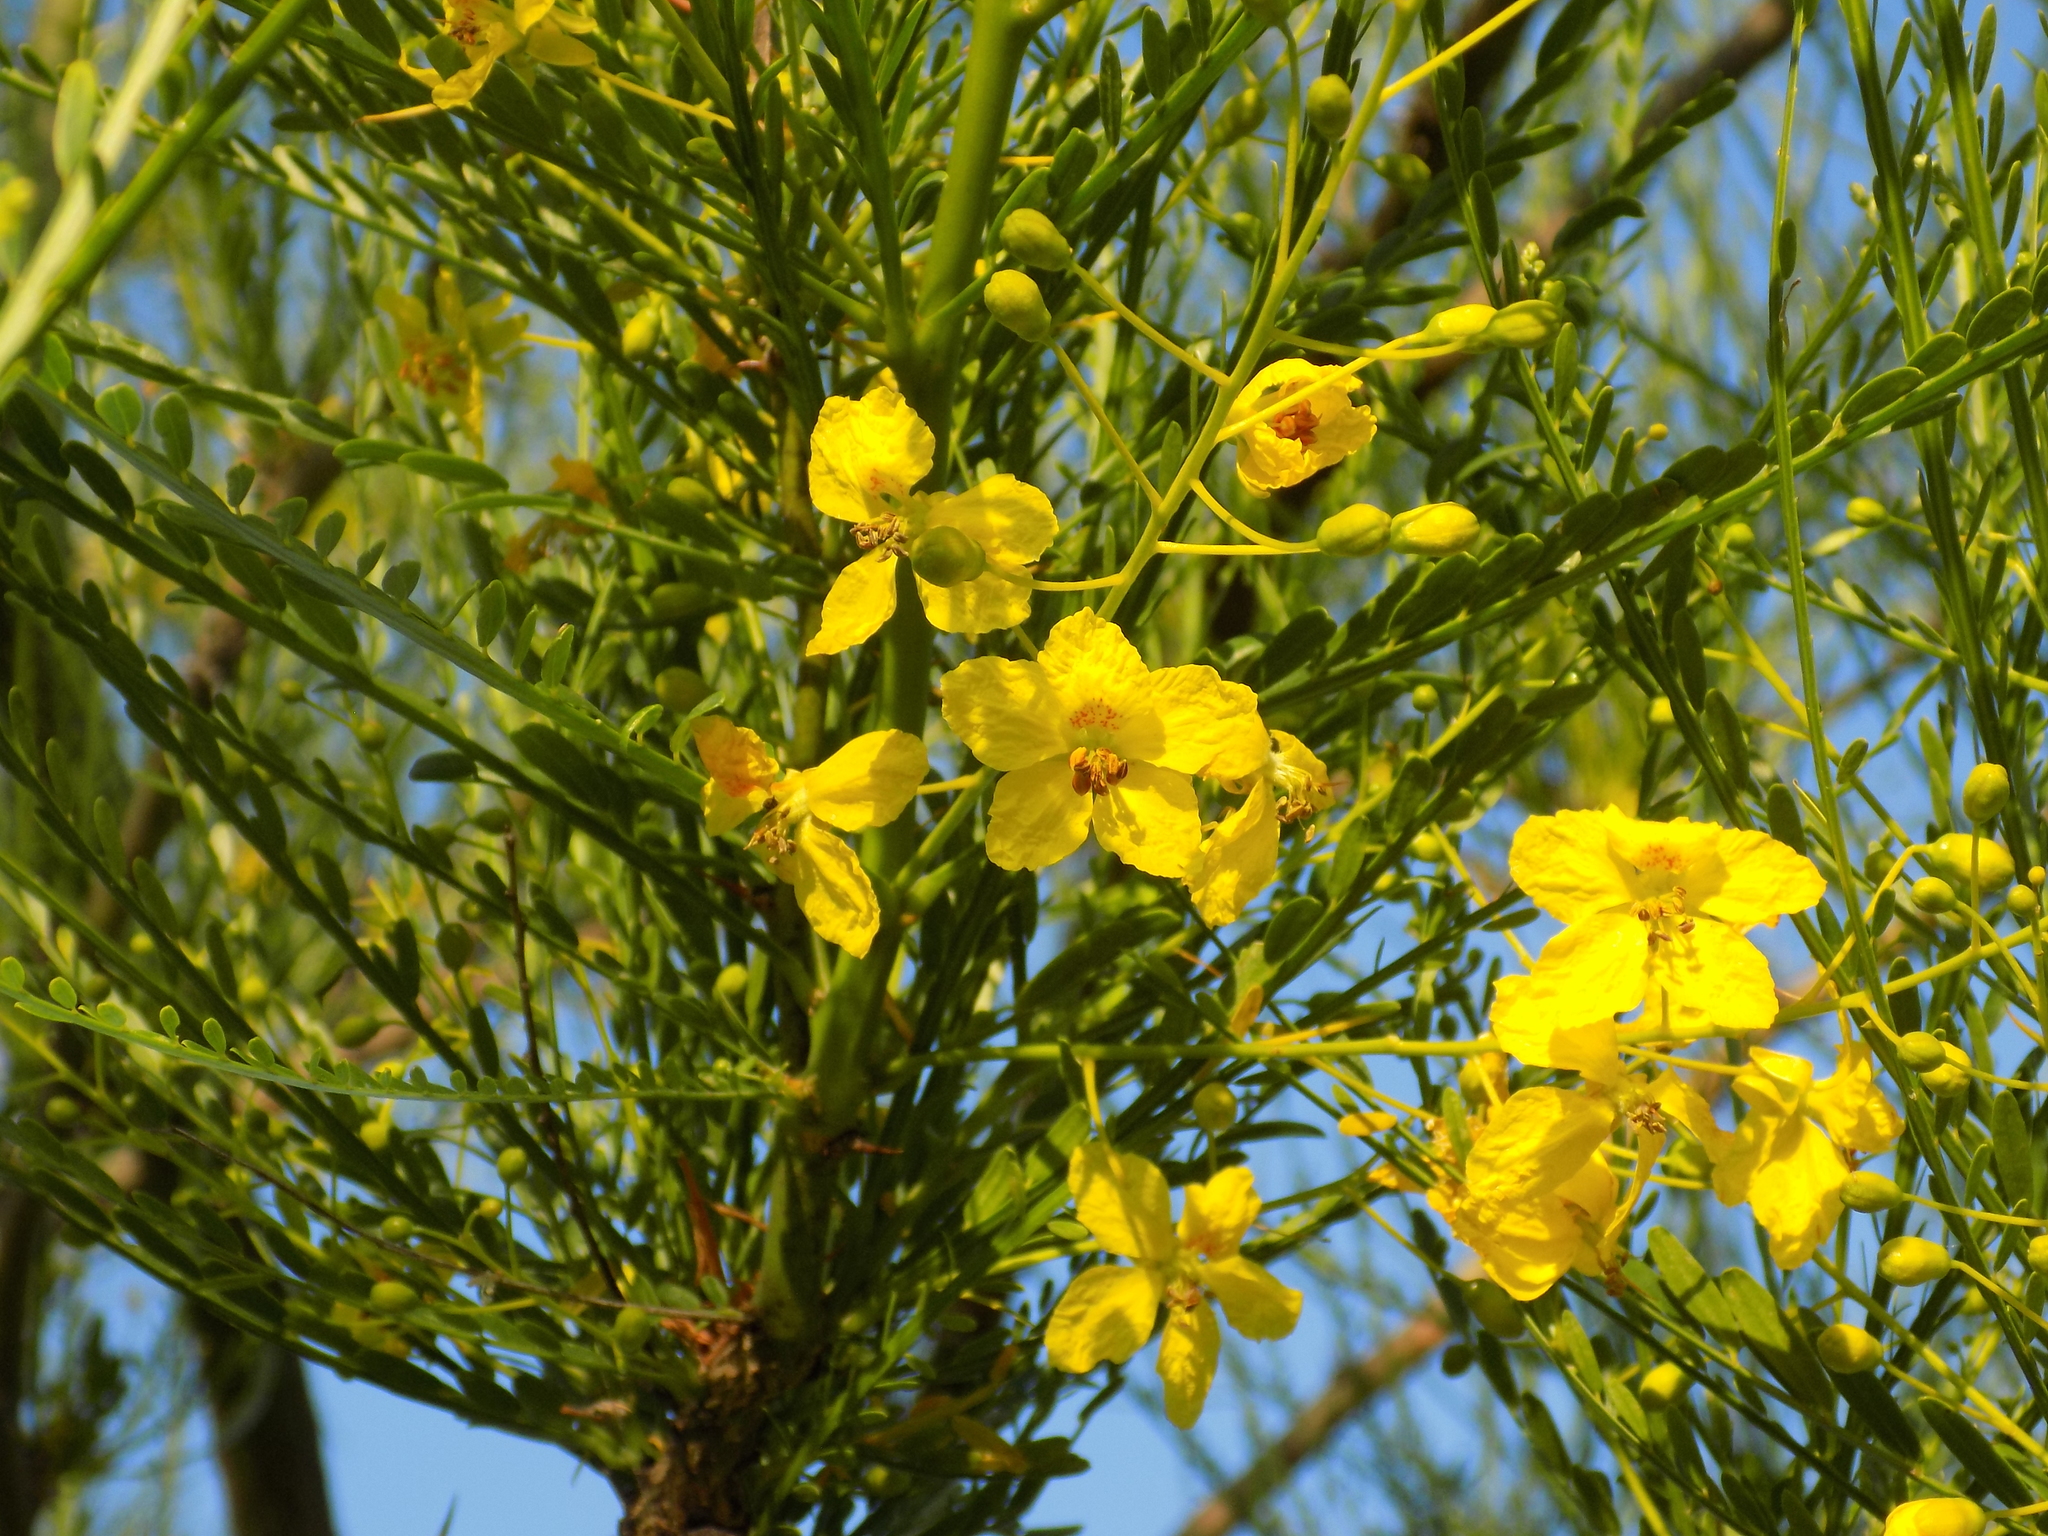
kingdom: Plantae
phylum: Tracheophyta
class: Magnoliopsida
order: Fabales
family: Fabaceae
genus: Parkinsonia
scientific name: Parkinsonia aculeata
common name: Jerusalem thorn
